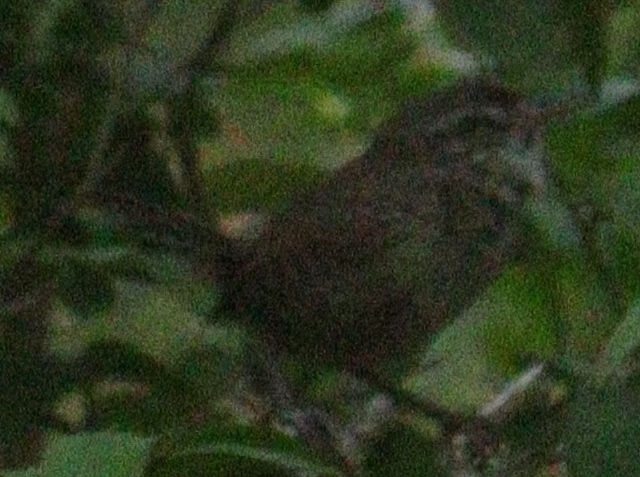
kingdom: Animalia
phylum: Chordata
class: Aves
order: Passeriformes
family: Troglodytidae
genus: Troglodytes
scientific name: Troglodytes troglodytes
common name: Eurasian wren
